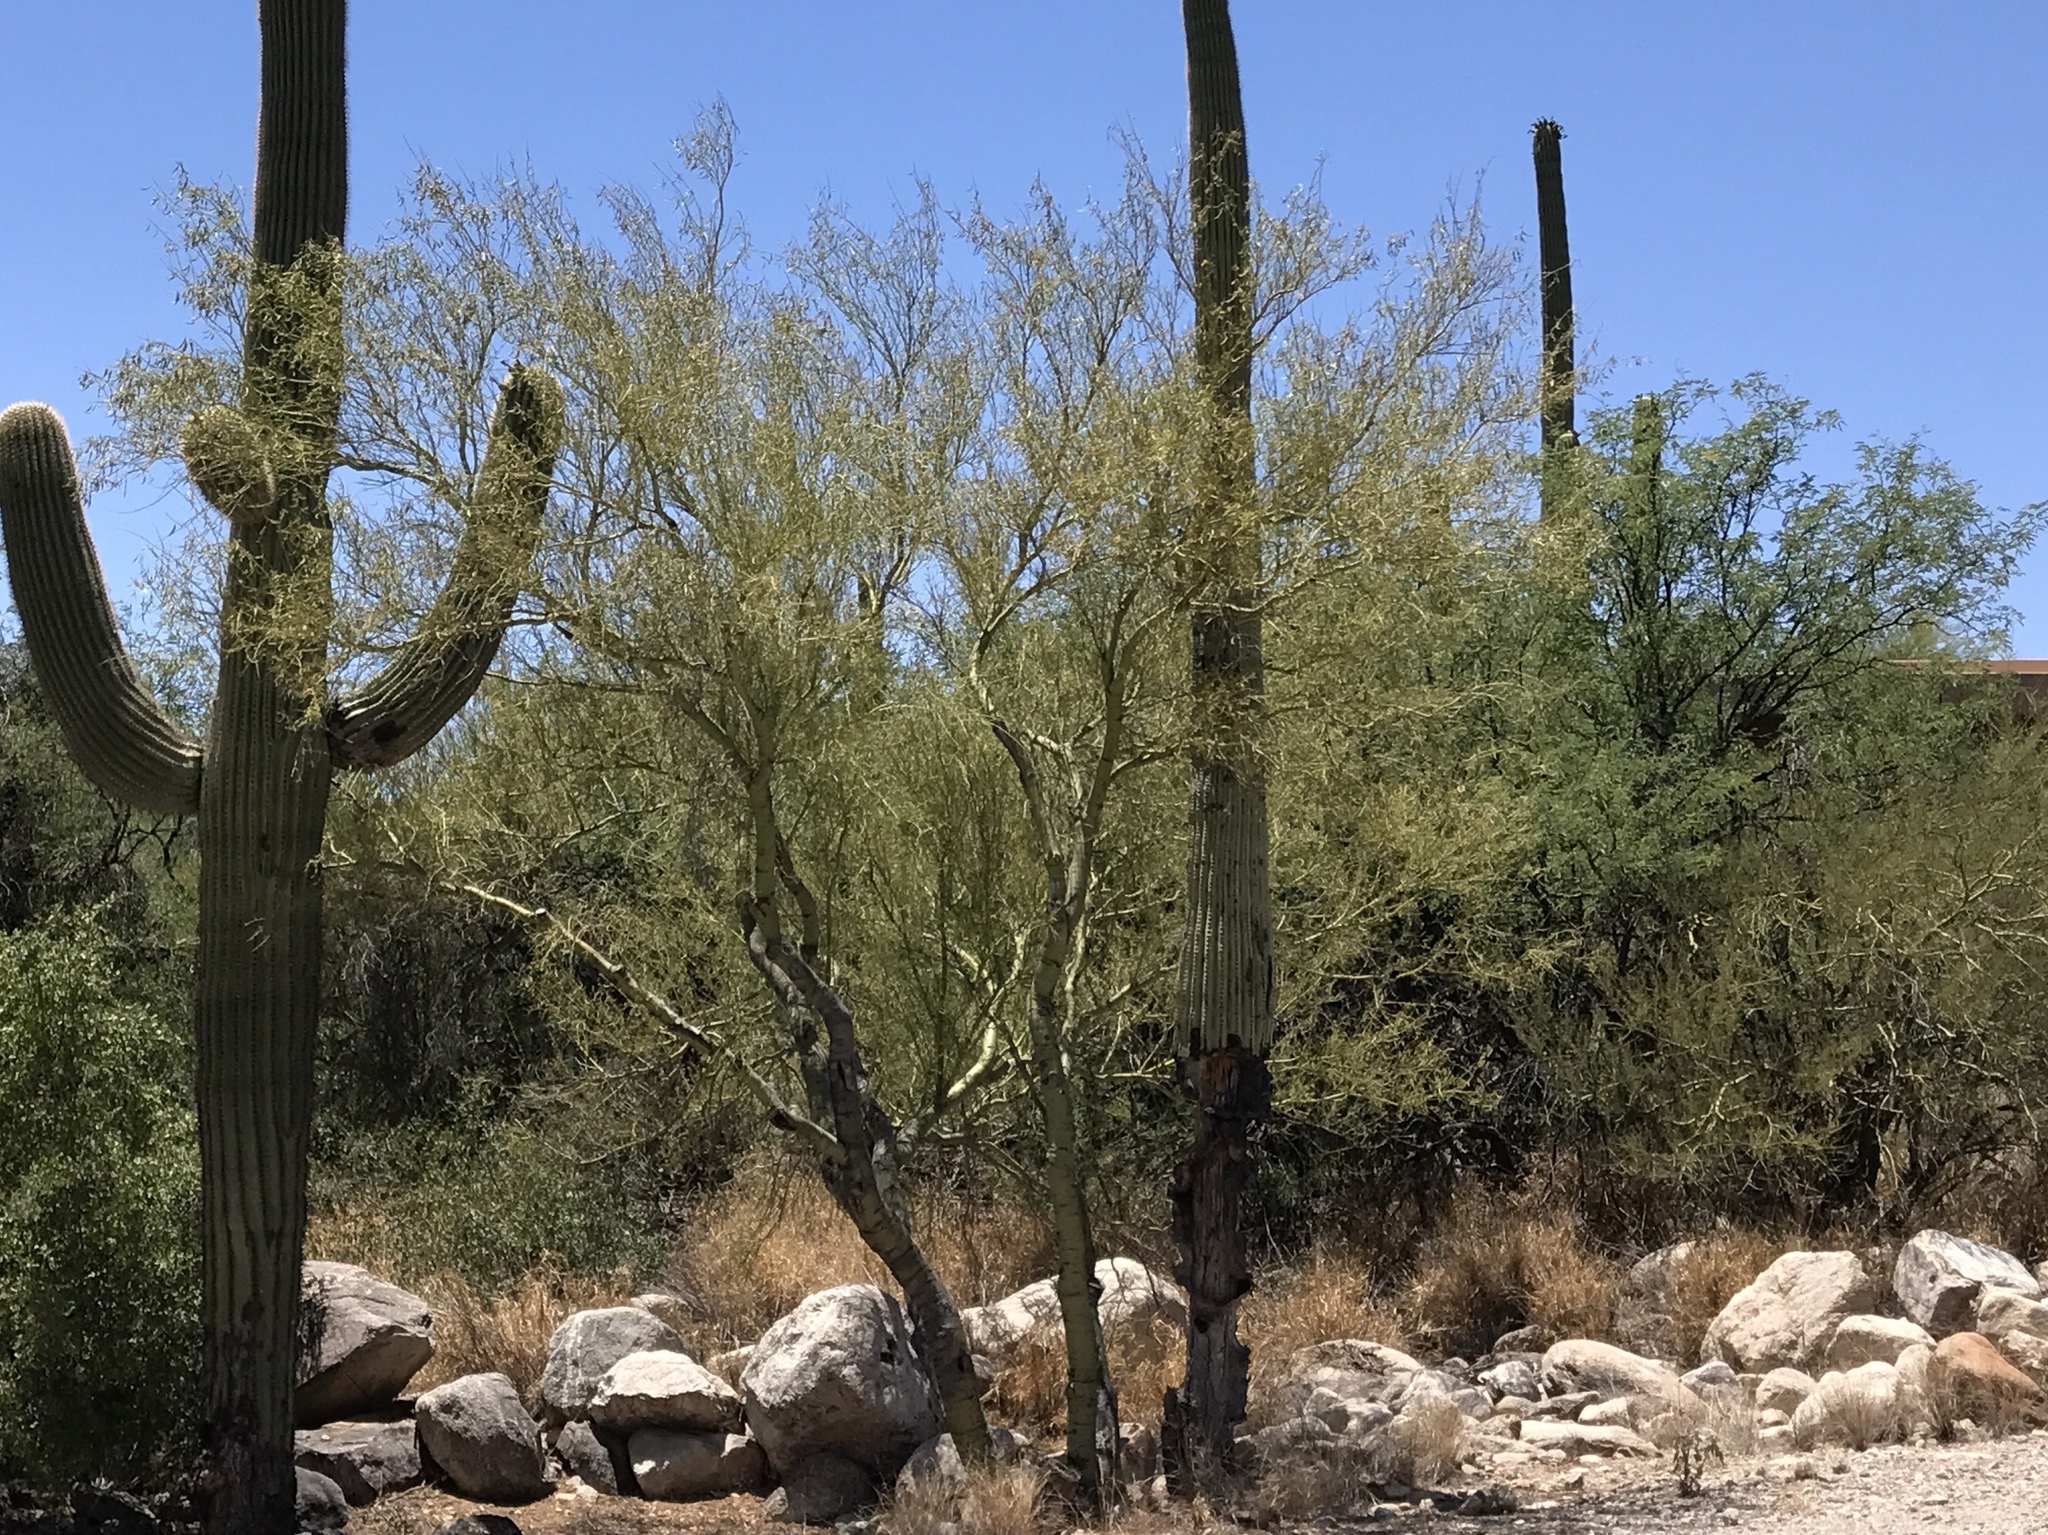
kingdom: Plantae
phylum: Tracheophyta
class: Magnoliopsida
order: Fabales
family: Fabaceae
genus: Parkinsonia
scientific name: Parkinsonia microphylla
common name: Yellow paloverde
